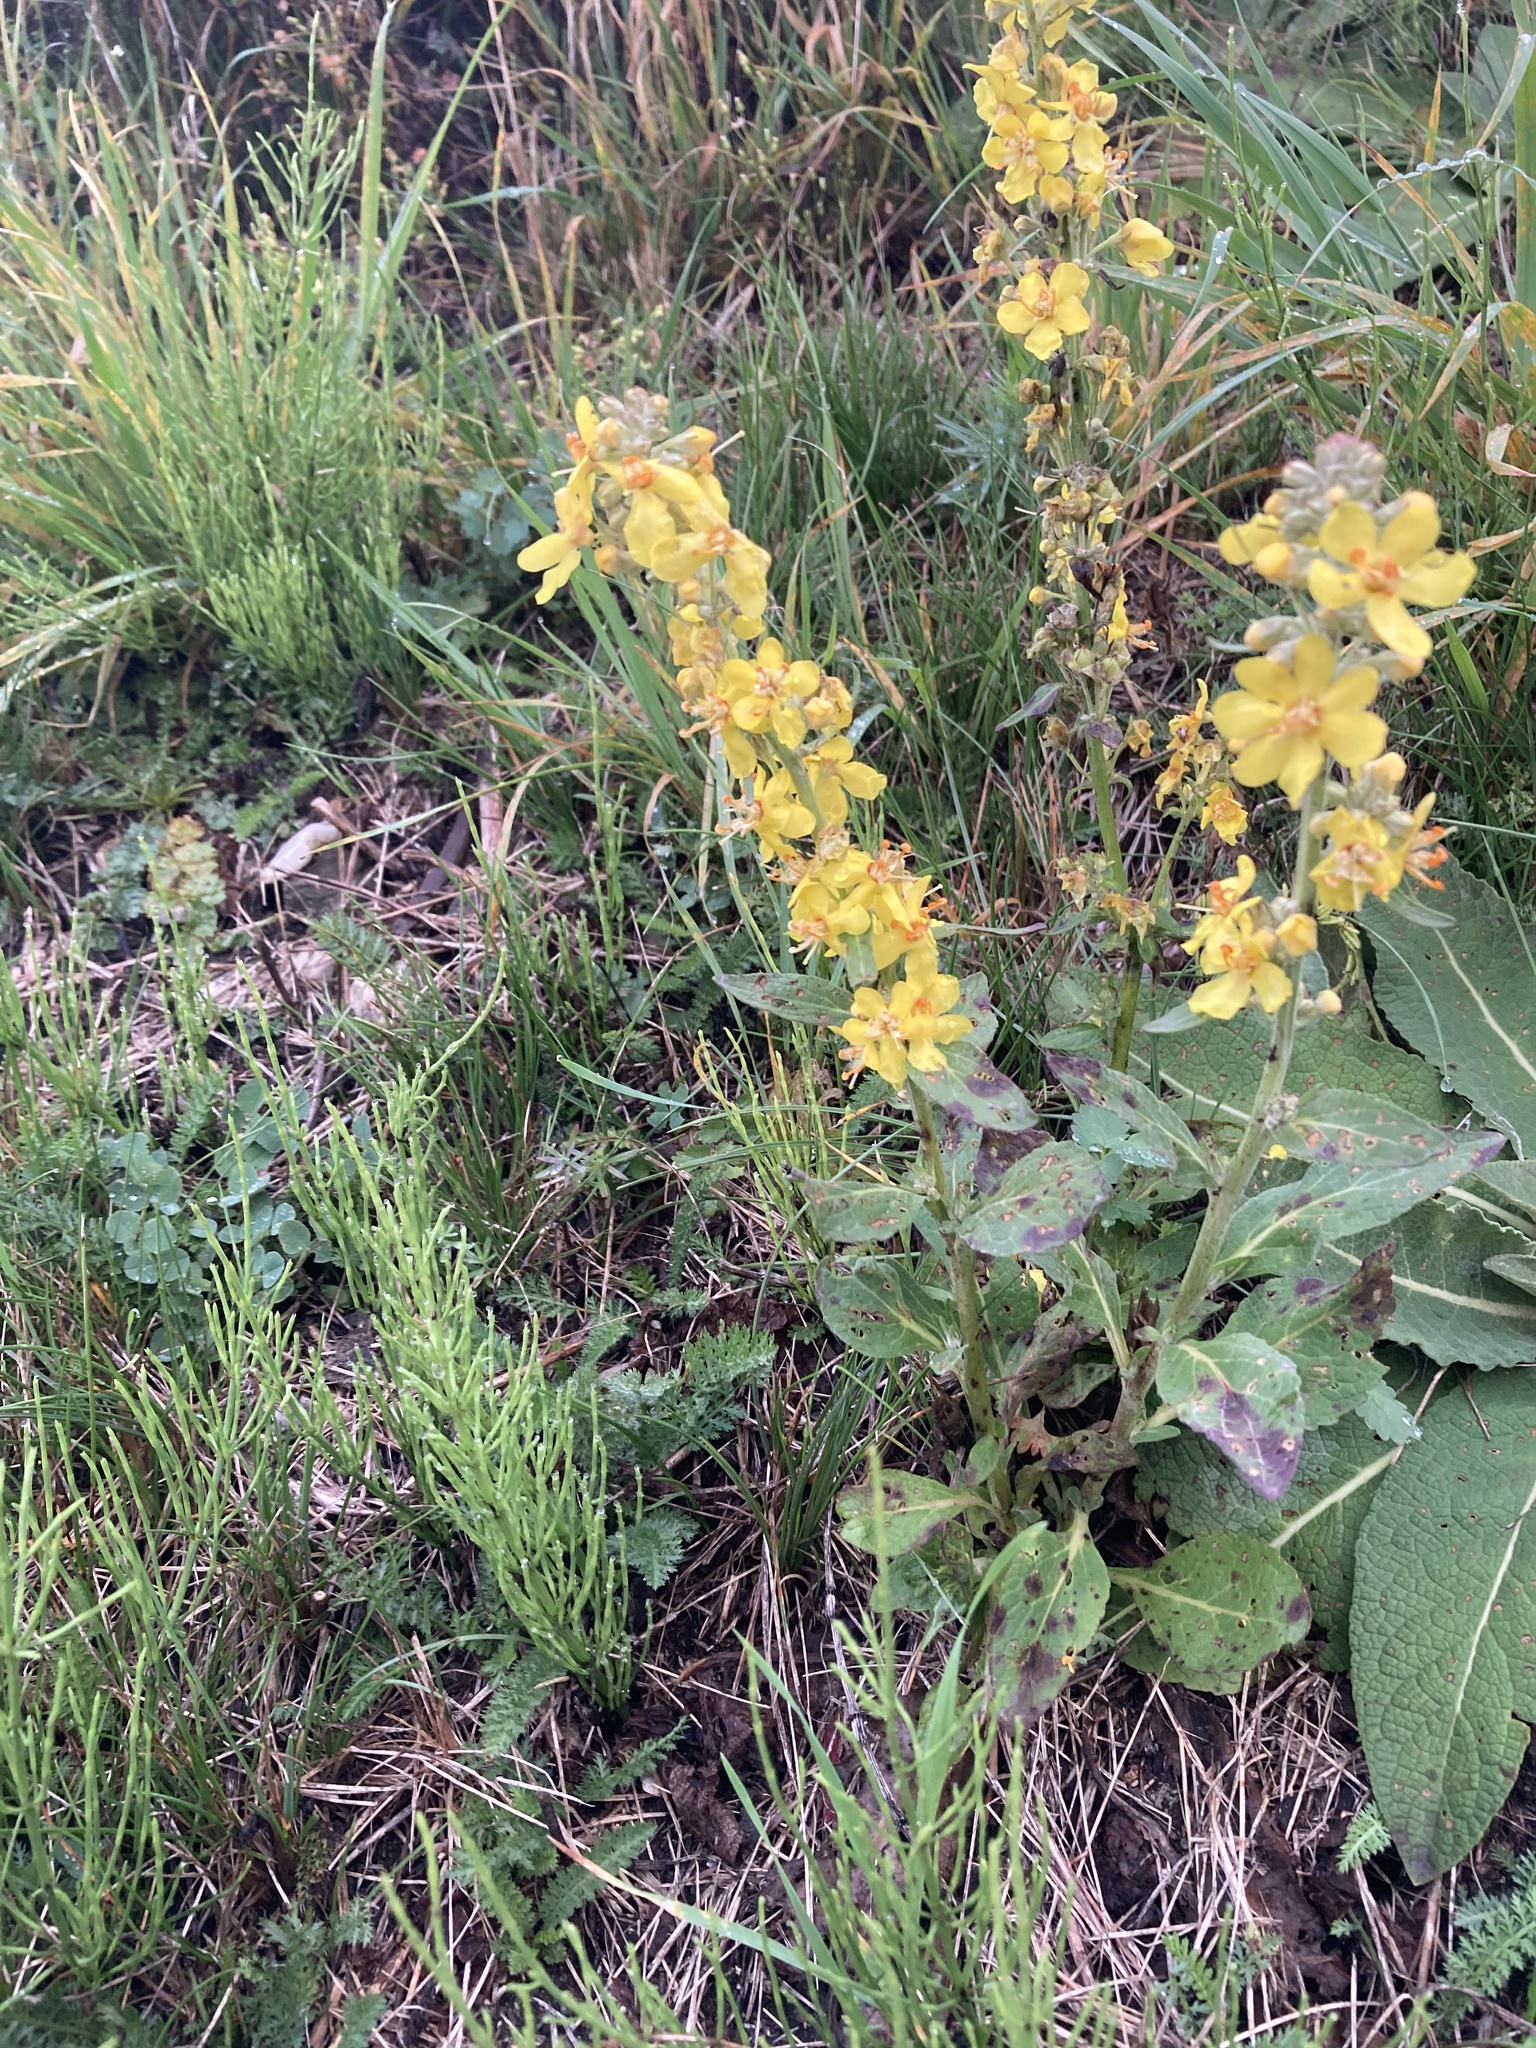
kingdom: Plantae
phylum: Tracheophyta
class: Magnoliopsida
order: Lamiales
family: Scrophulariaceae
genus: Verbascum
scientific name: Verbascum lychnitis
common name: White mullein
